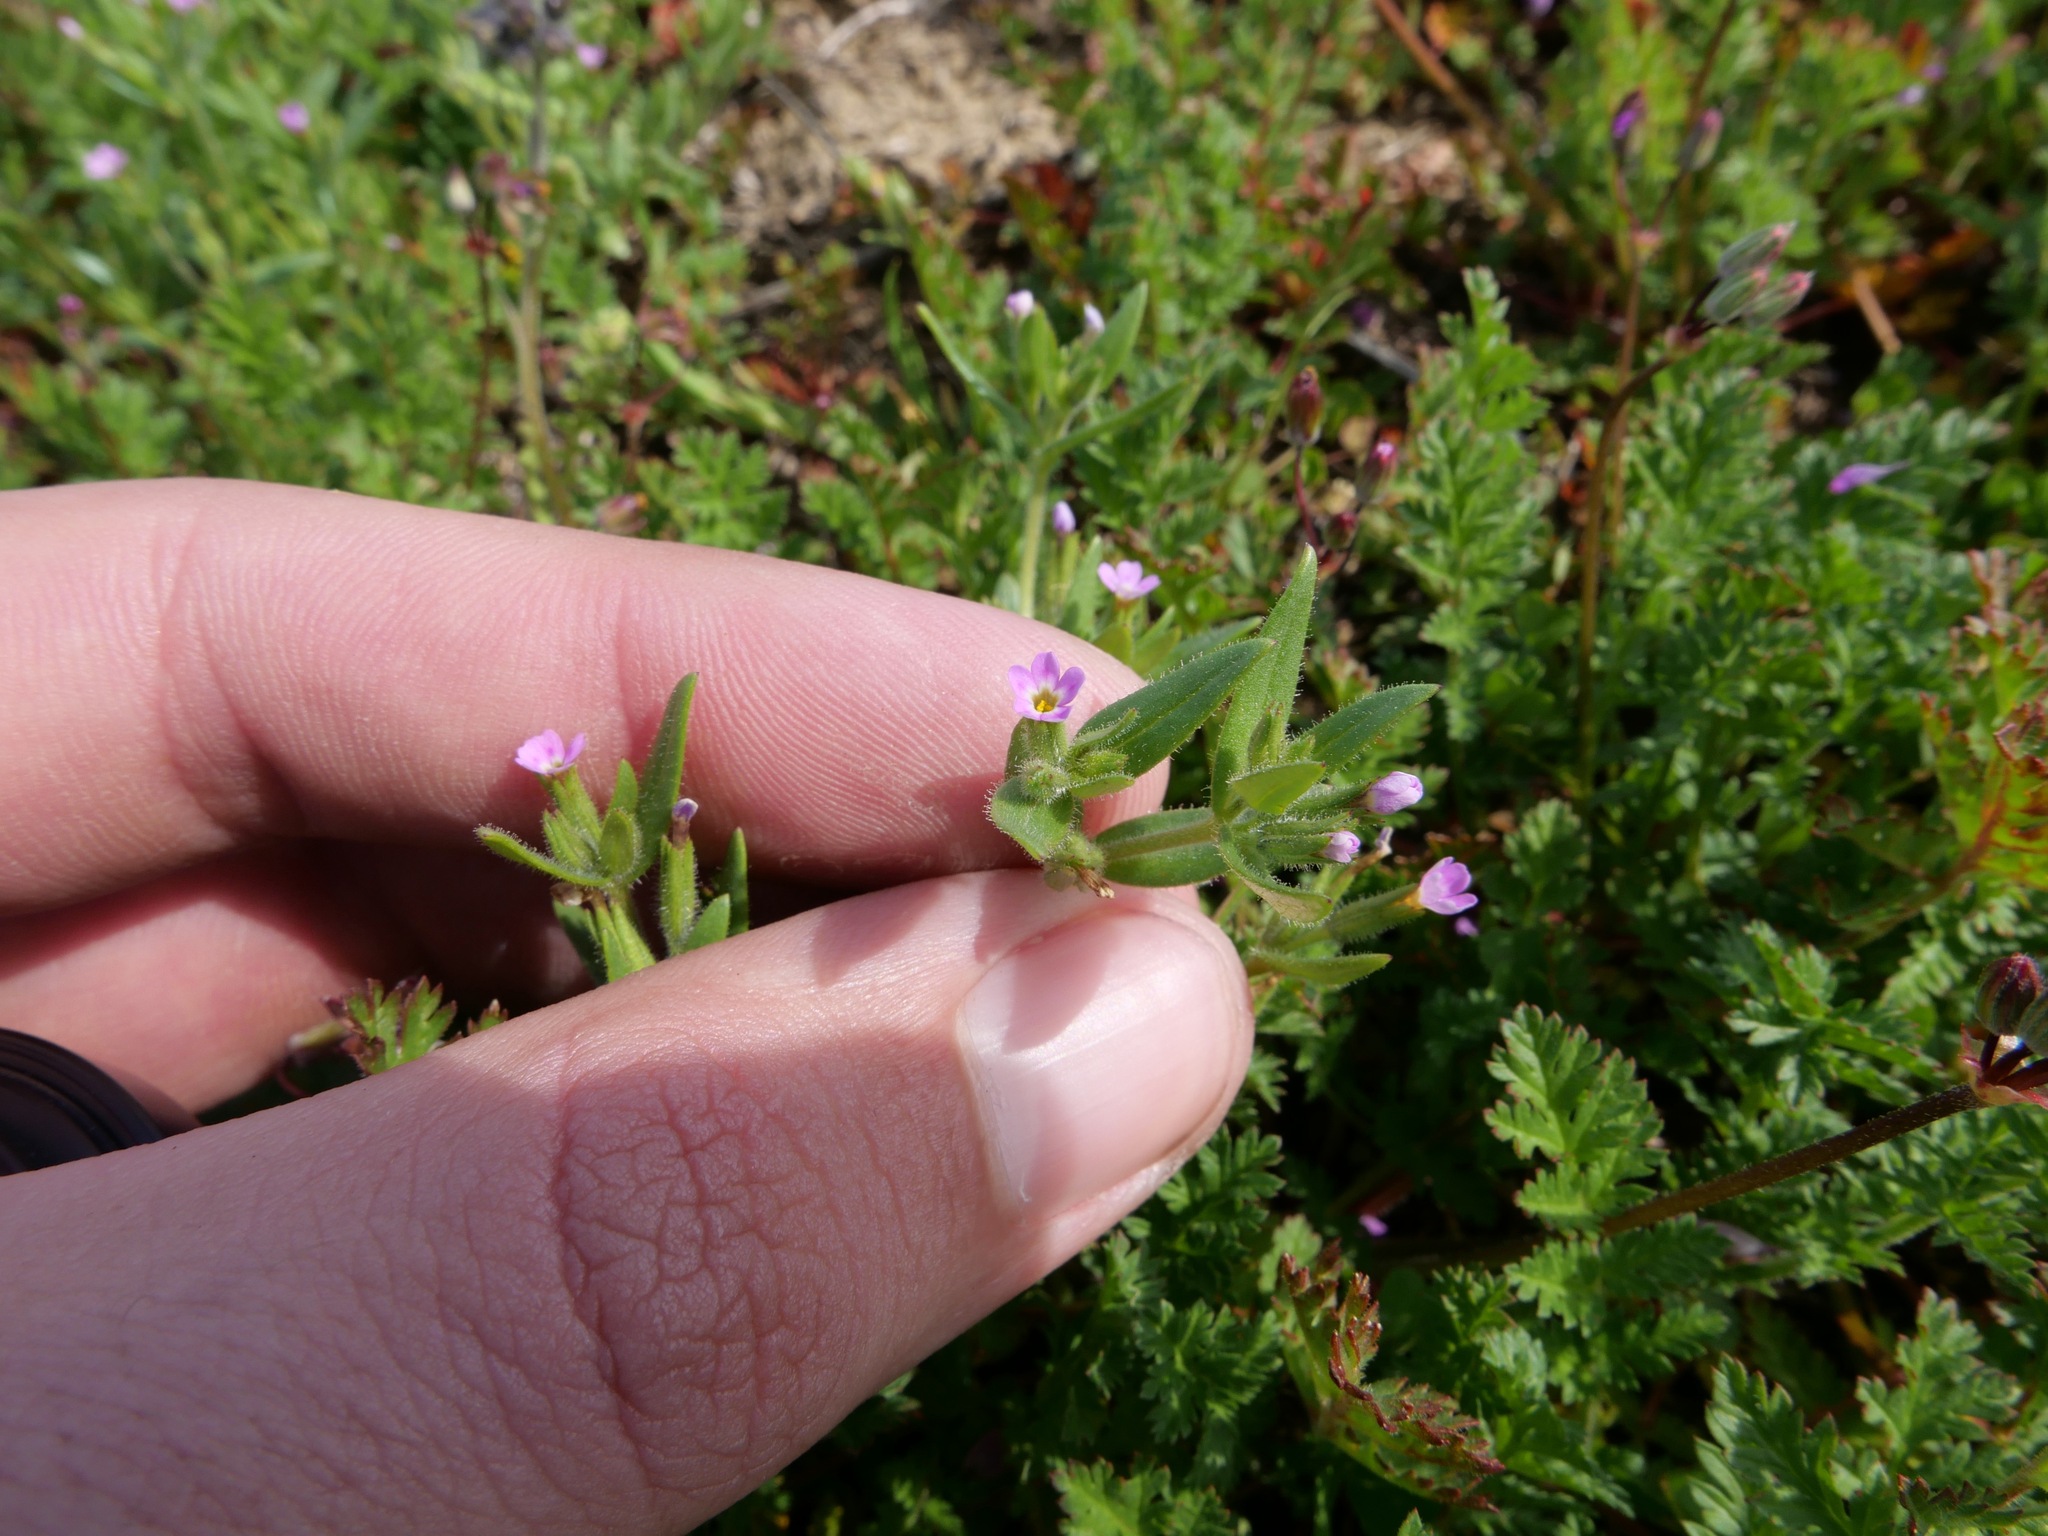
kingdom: Plantae
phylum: Tracheophyta
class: Magnoliopsida
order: Ericales
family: Polemoniaceae
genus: Phlox
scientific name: Phlox gracilis
